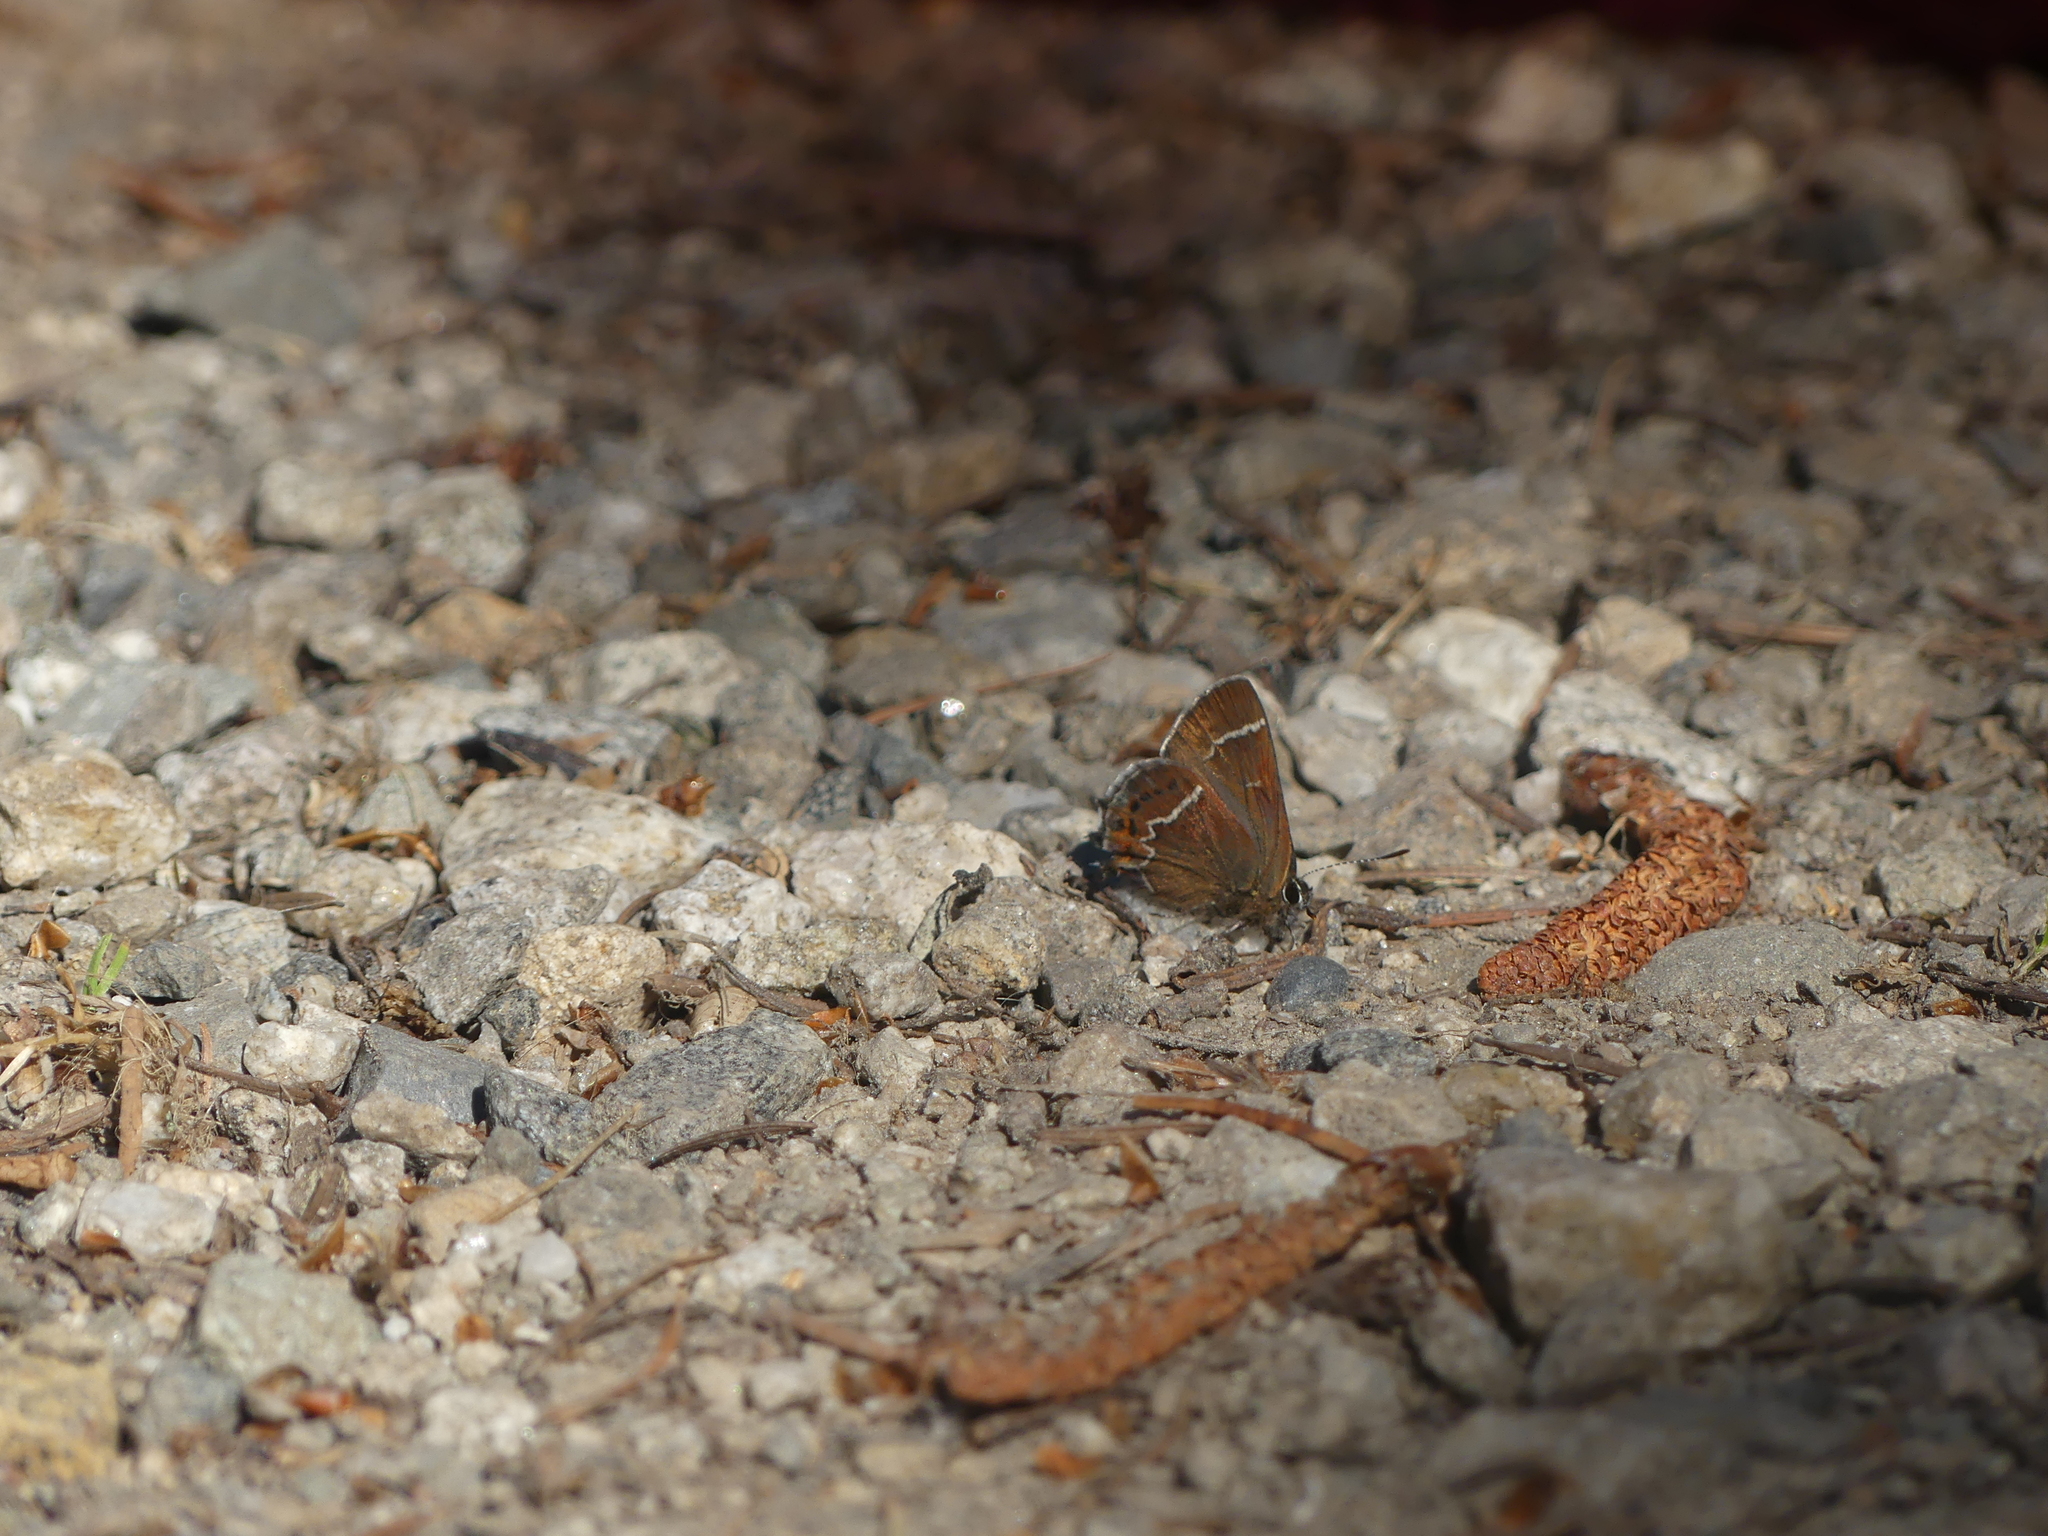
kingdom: Animalia
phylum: Arthropoda
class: Insecta
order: Lepidoptera
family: Lycaenidae
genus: Mitoura
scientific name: Mitoura spinetorum
